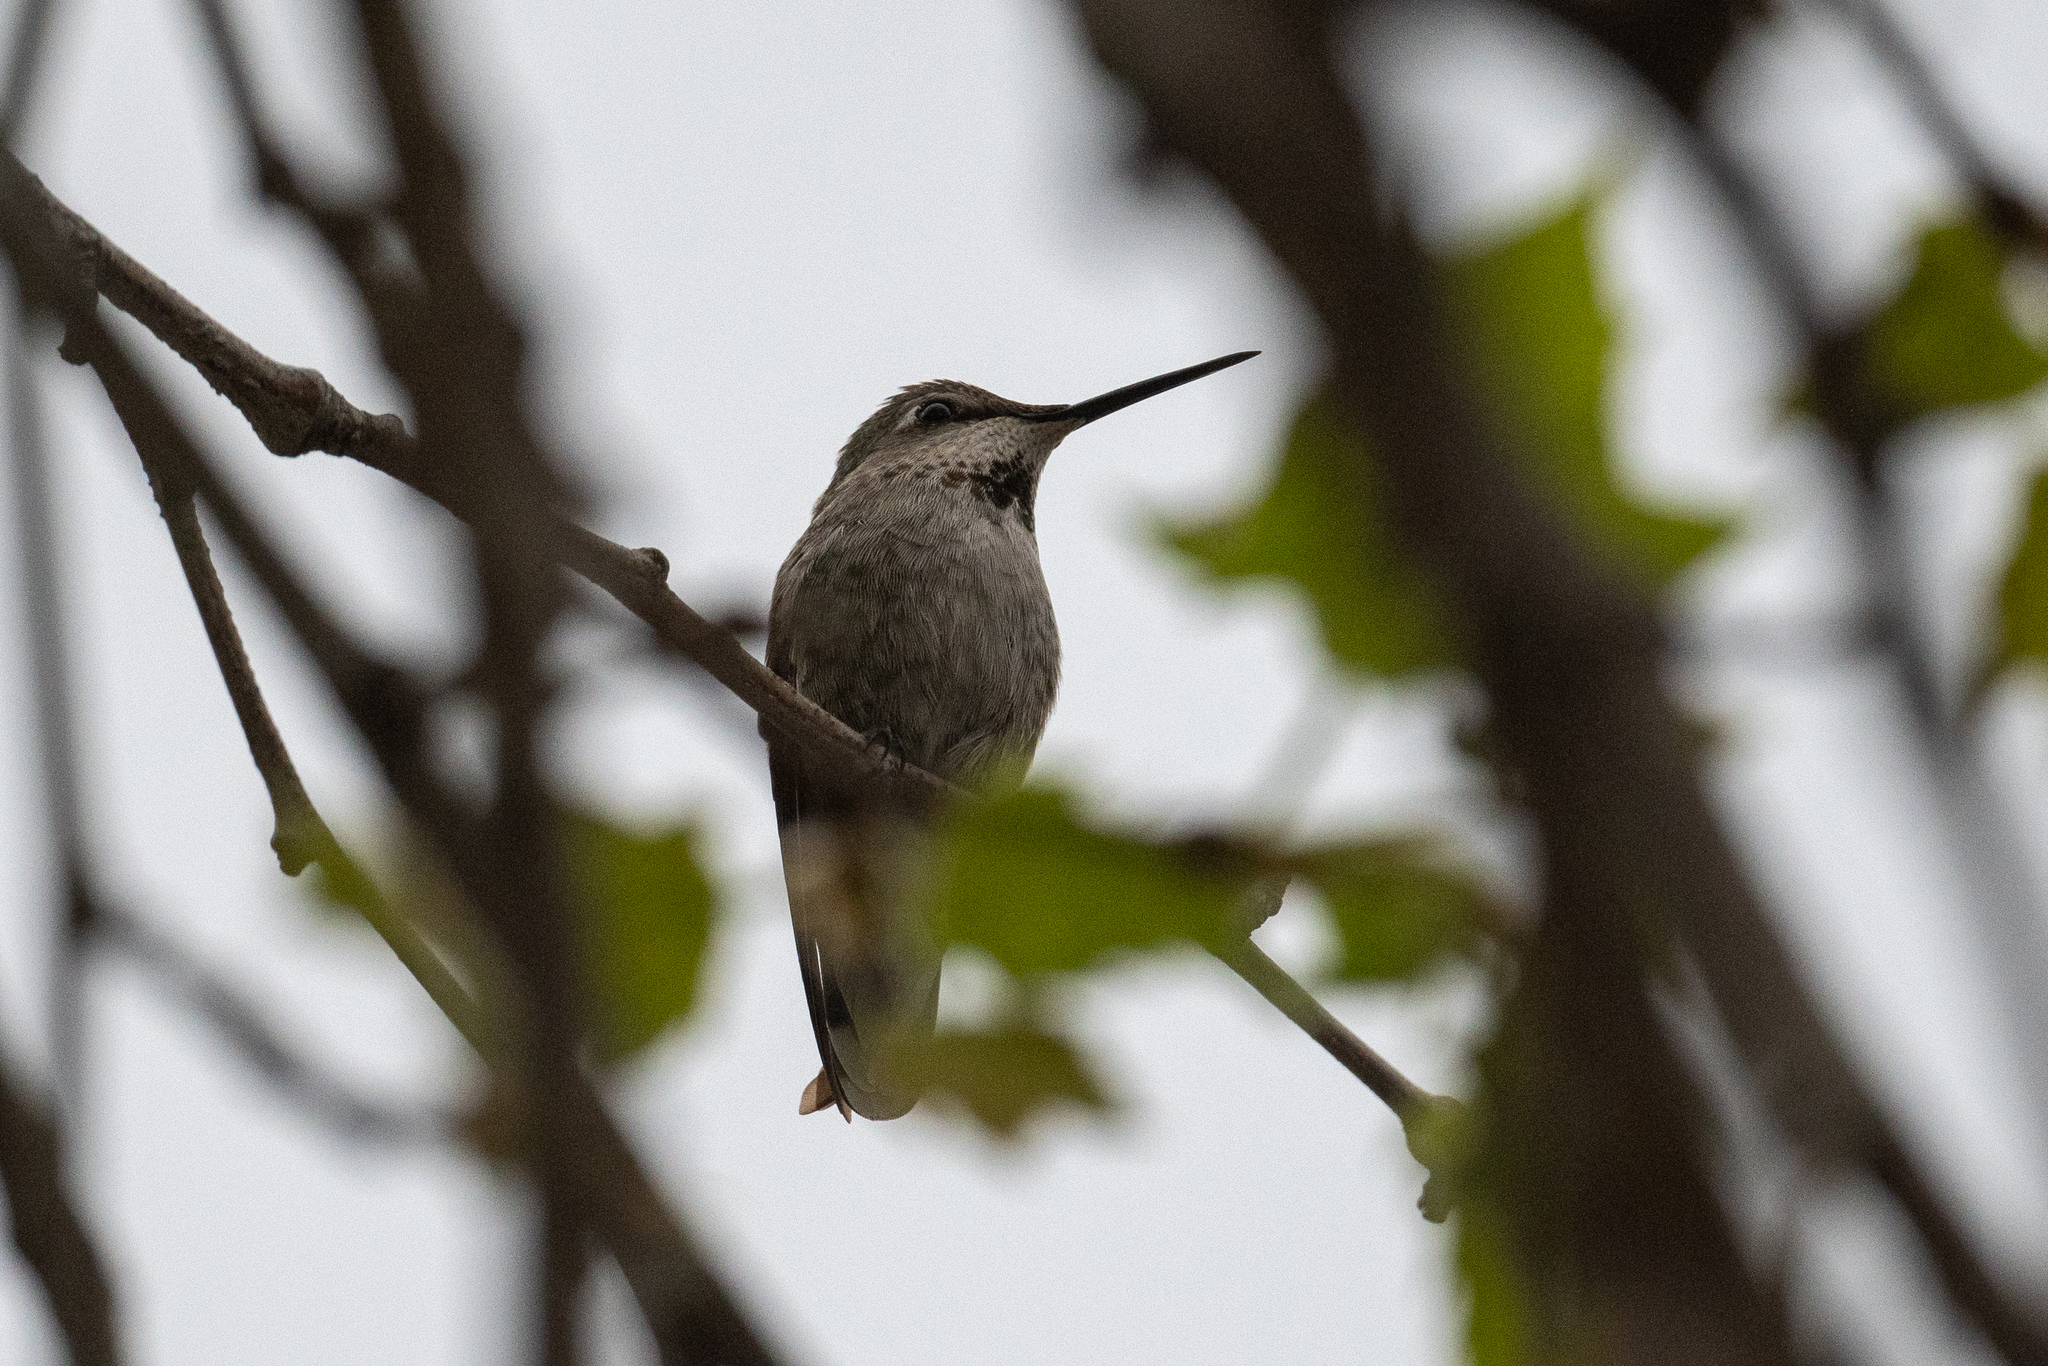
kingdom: Animalia
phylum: Chordata
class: Aves
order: Apodiformes
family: Trochilidae
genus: Calypte
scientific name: Calypte anna
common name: Anna's hummingbird
